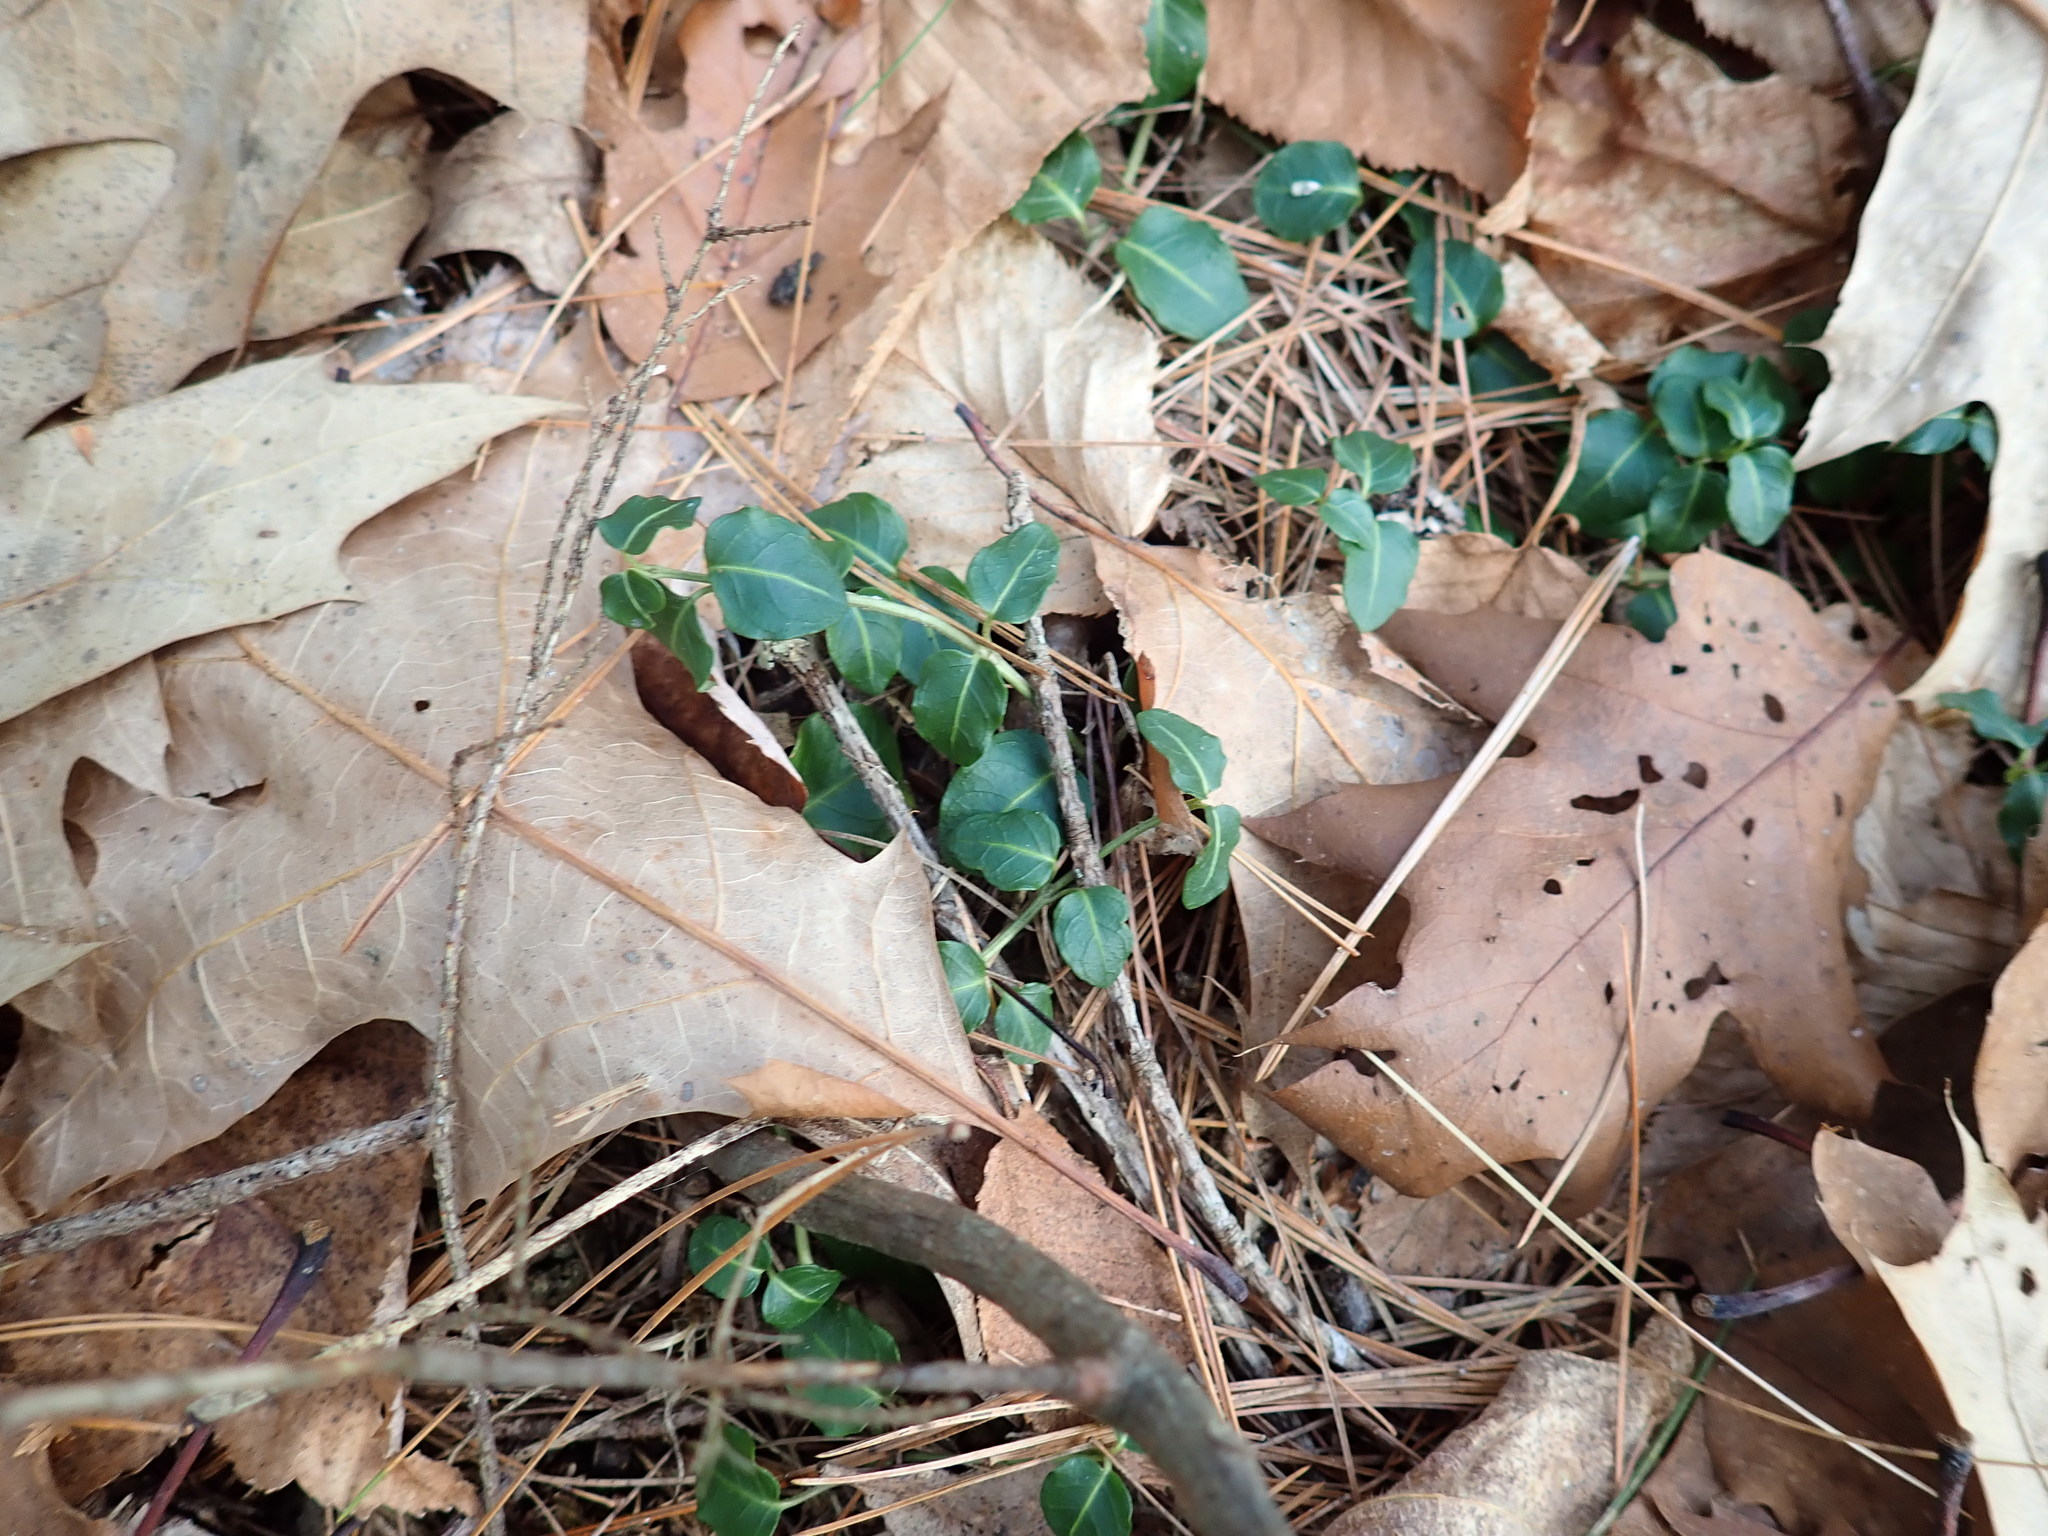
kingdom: Plantae
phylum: Tracheophyta
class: Magnoliopsida
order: Gentianales
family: Rubiaceae
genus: Mitchella
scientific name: Mitchella repens
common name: Partridge-berry
